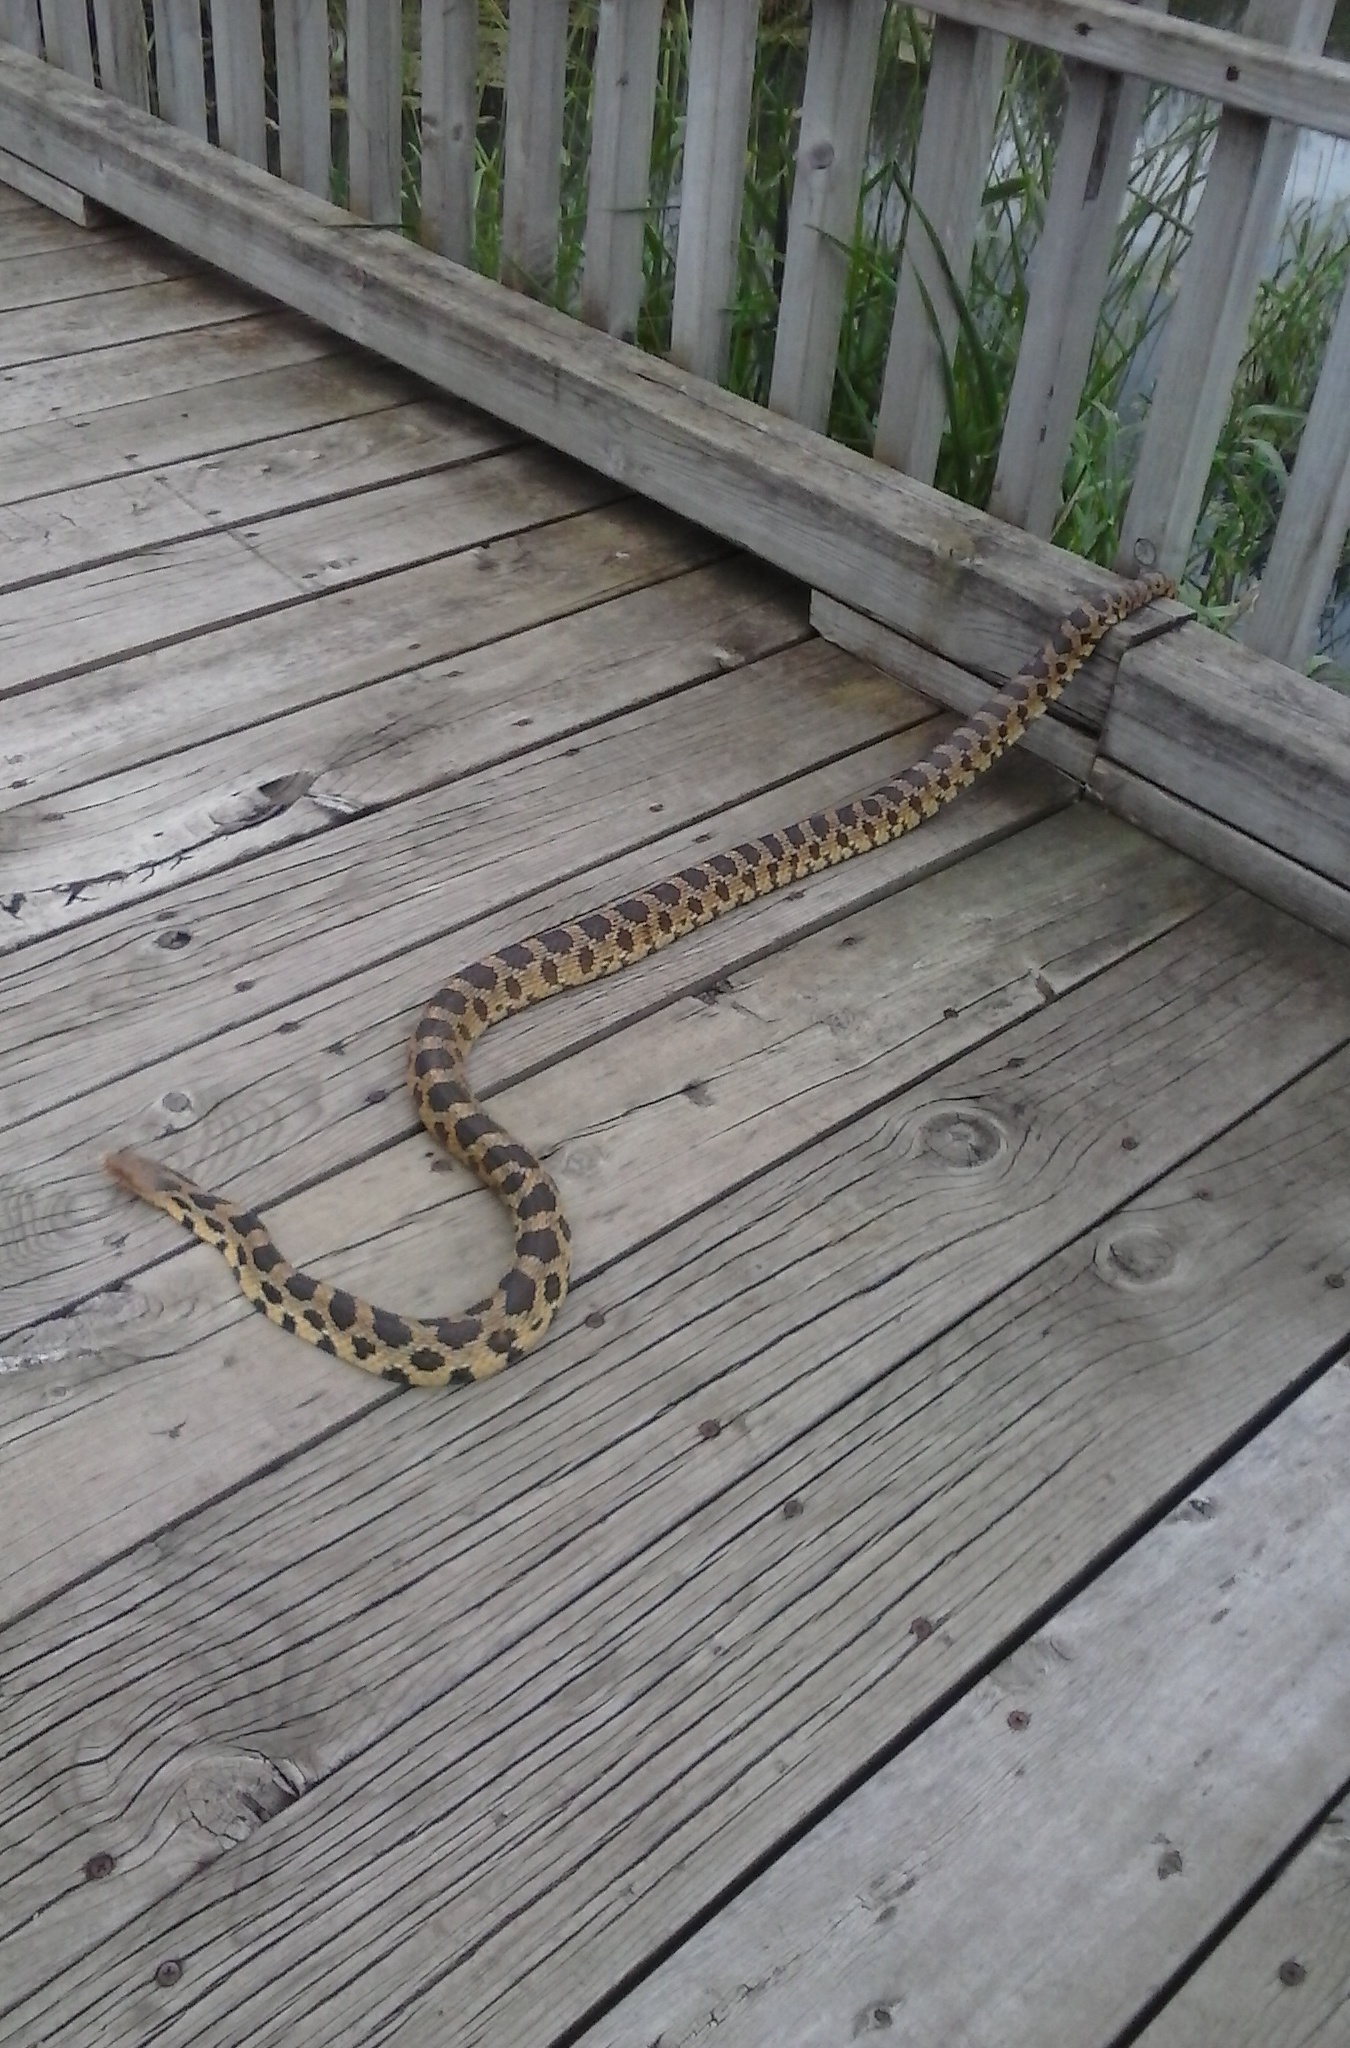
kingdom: Animalia
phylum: Chordata
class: Squamata
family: Colubridae
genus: Pantherophis
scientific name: Pantherophis ramspotti
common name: Western foxsnake
